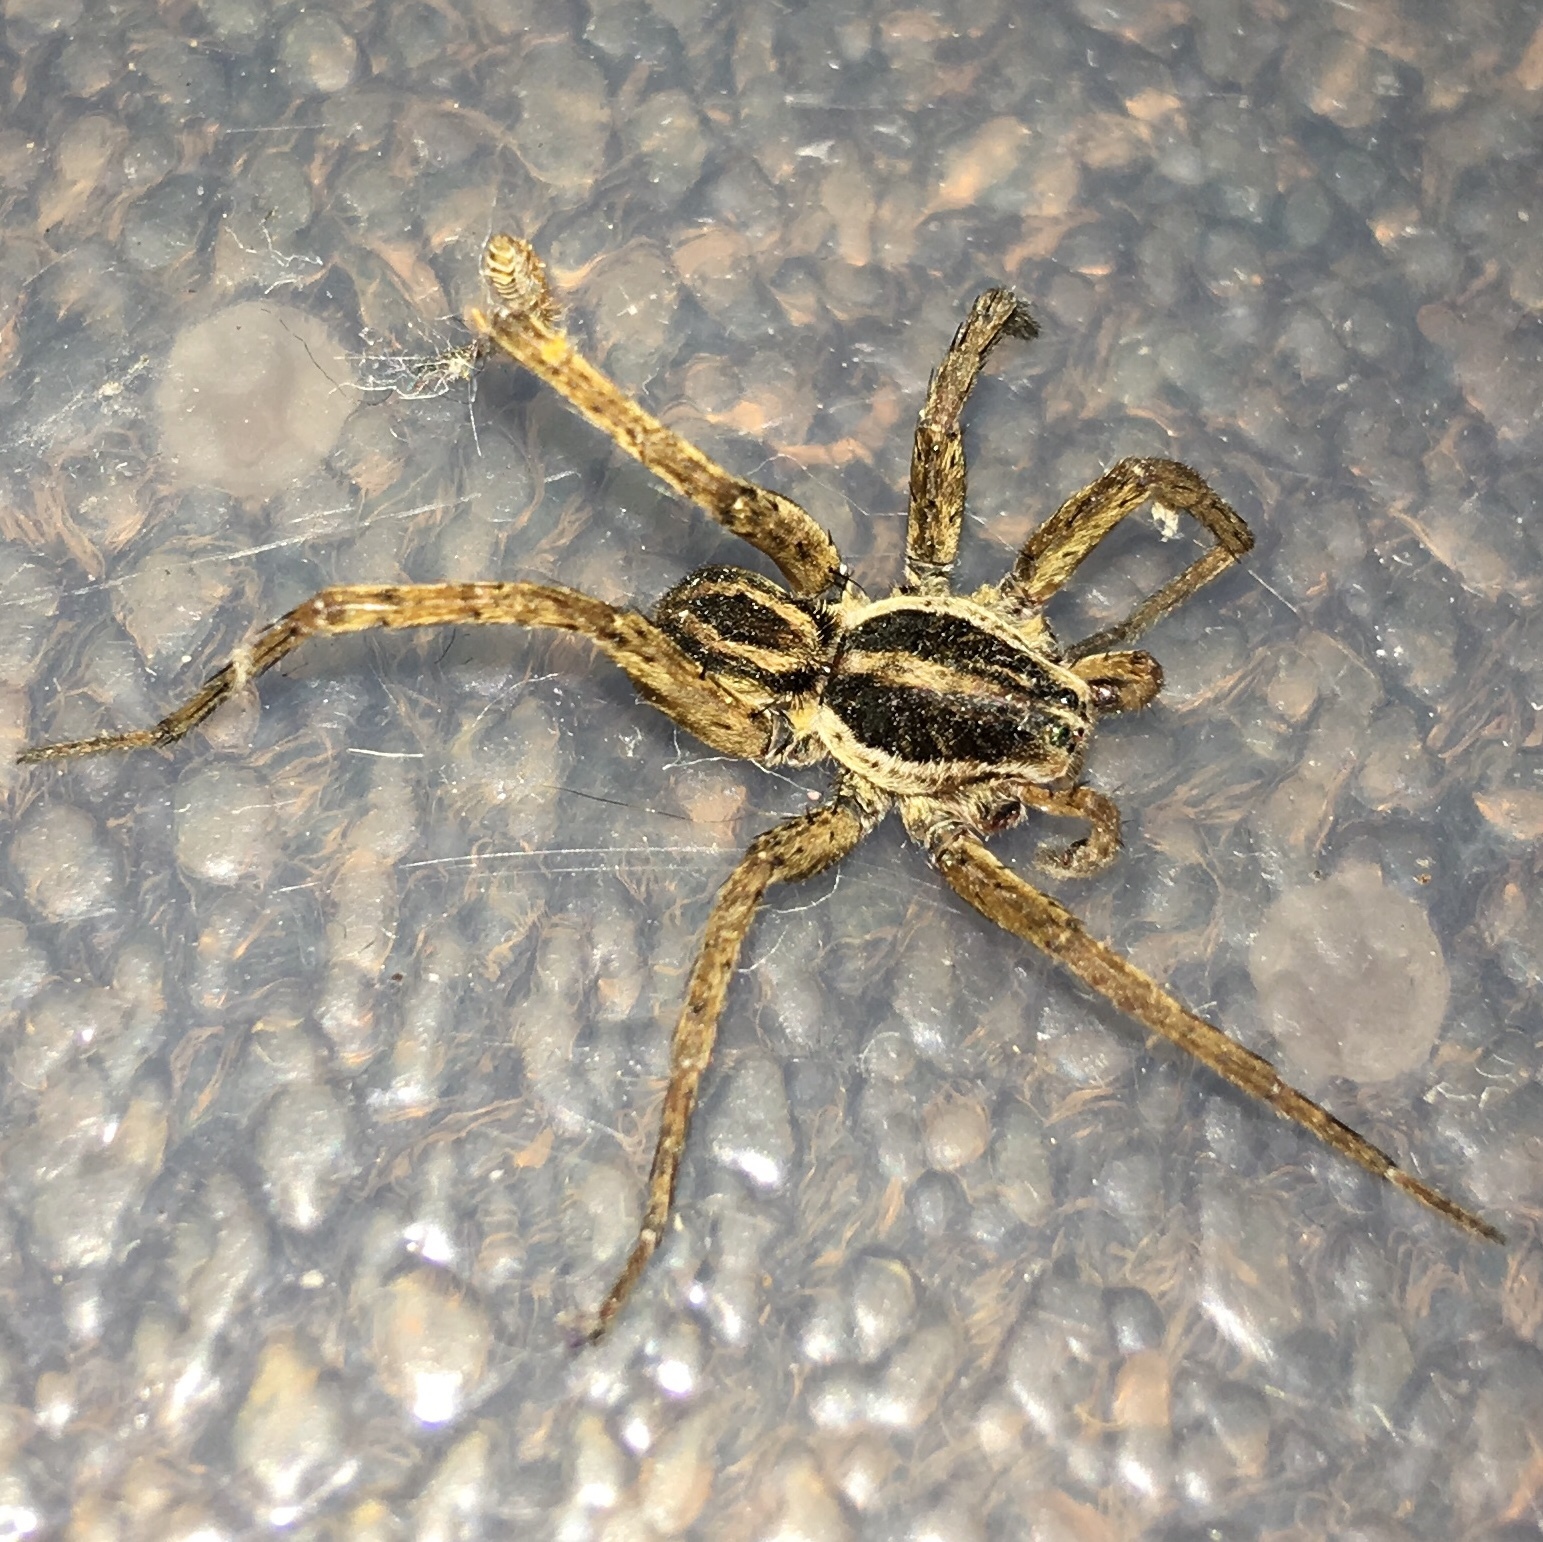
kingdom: Animalia
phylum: Arthropoda
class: Arachnida
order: Araneae
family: Lycosidae
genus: Tigrosa
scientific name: Tigrosa annexa
